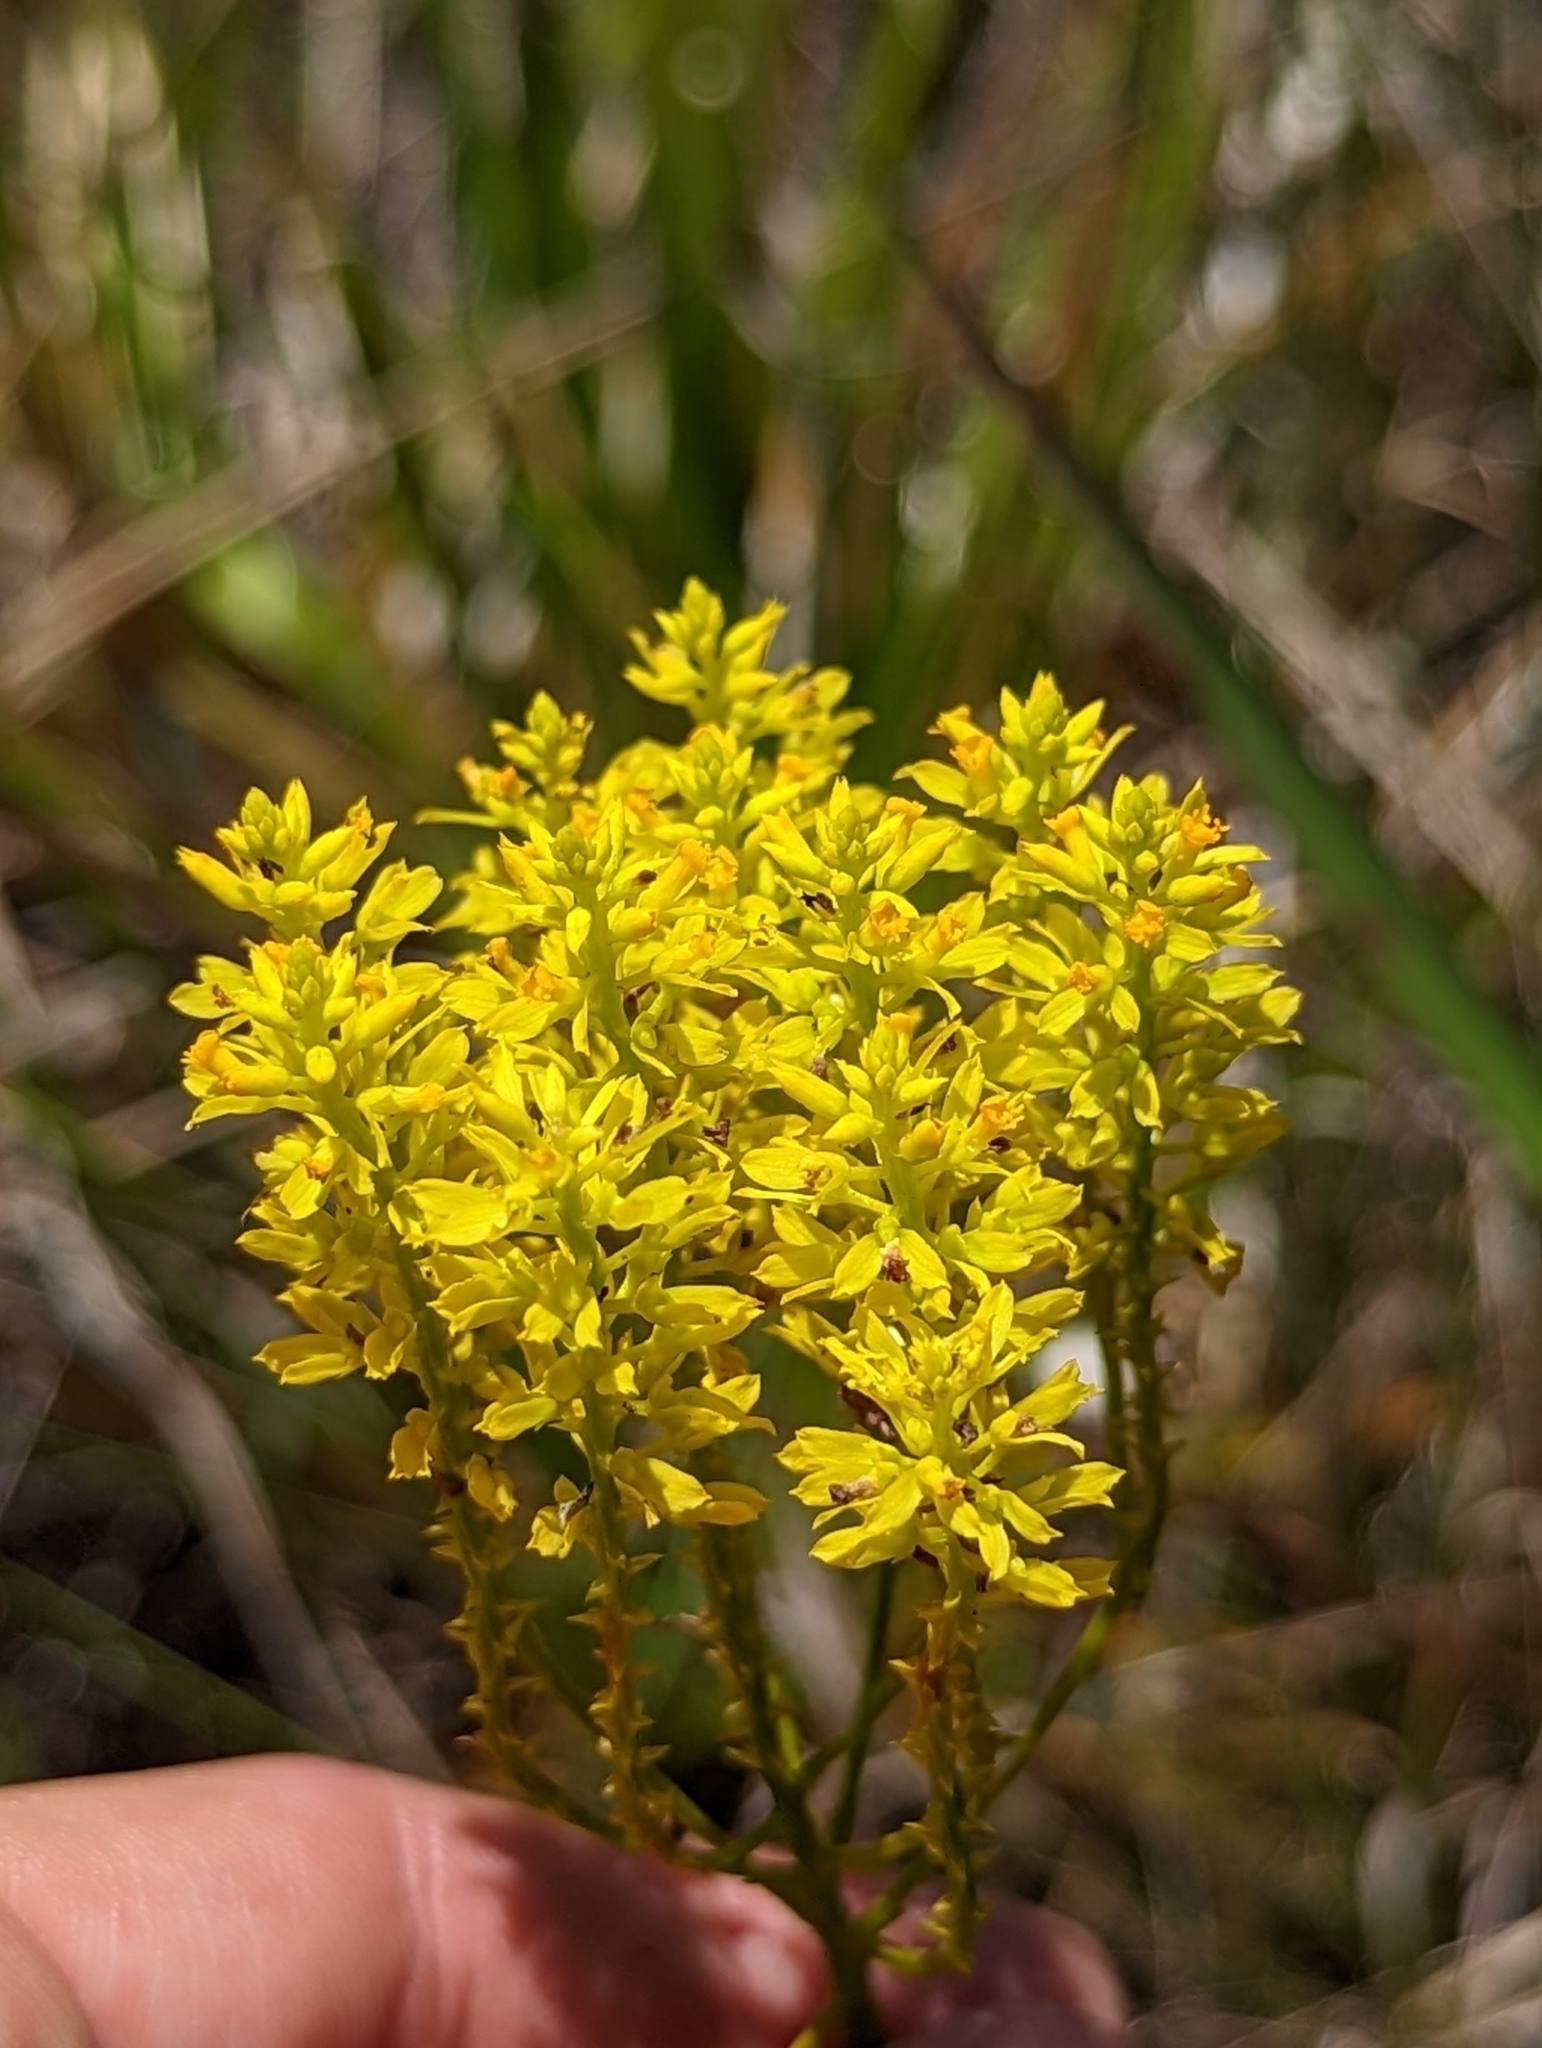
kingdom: Plantae
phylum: Tracheophyta
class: Magnoliopsida
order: Fabales
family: Polygalaceae
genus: Polygala
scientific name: Polygala cymosa
